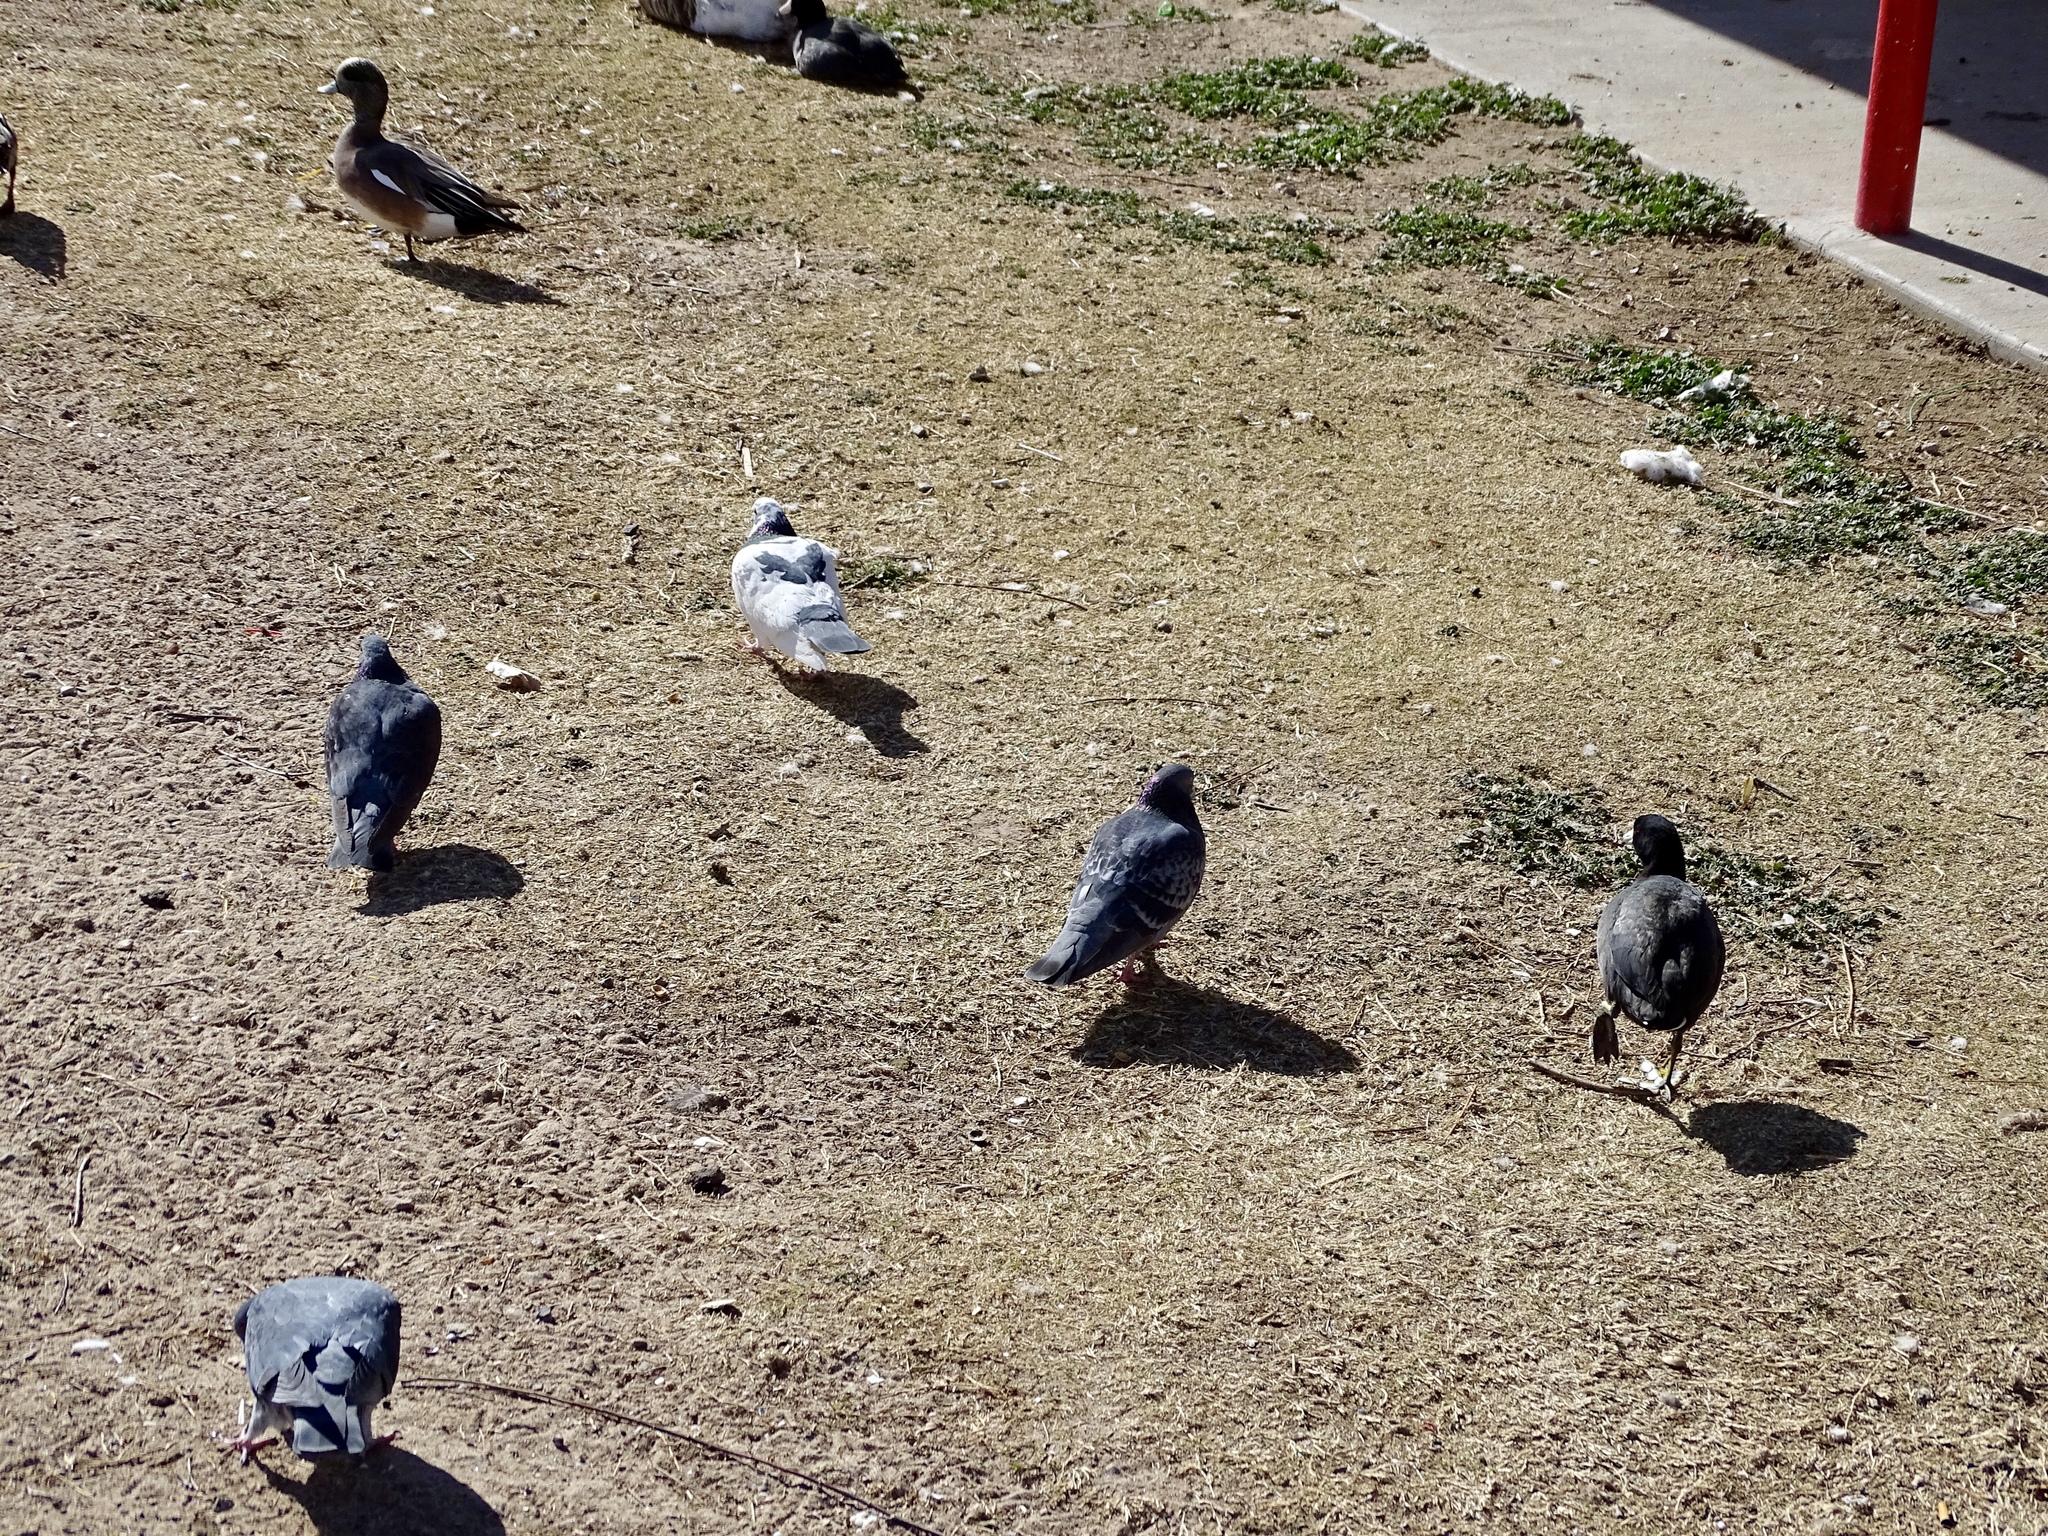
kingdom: Animalia
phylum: Chordata
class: Aves
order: Columbiformes
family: Columbidae
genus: Columba
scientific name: Columba livia
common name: Rock pigeon
